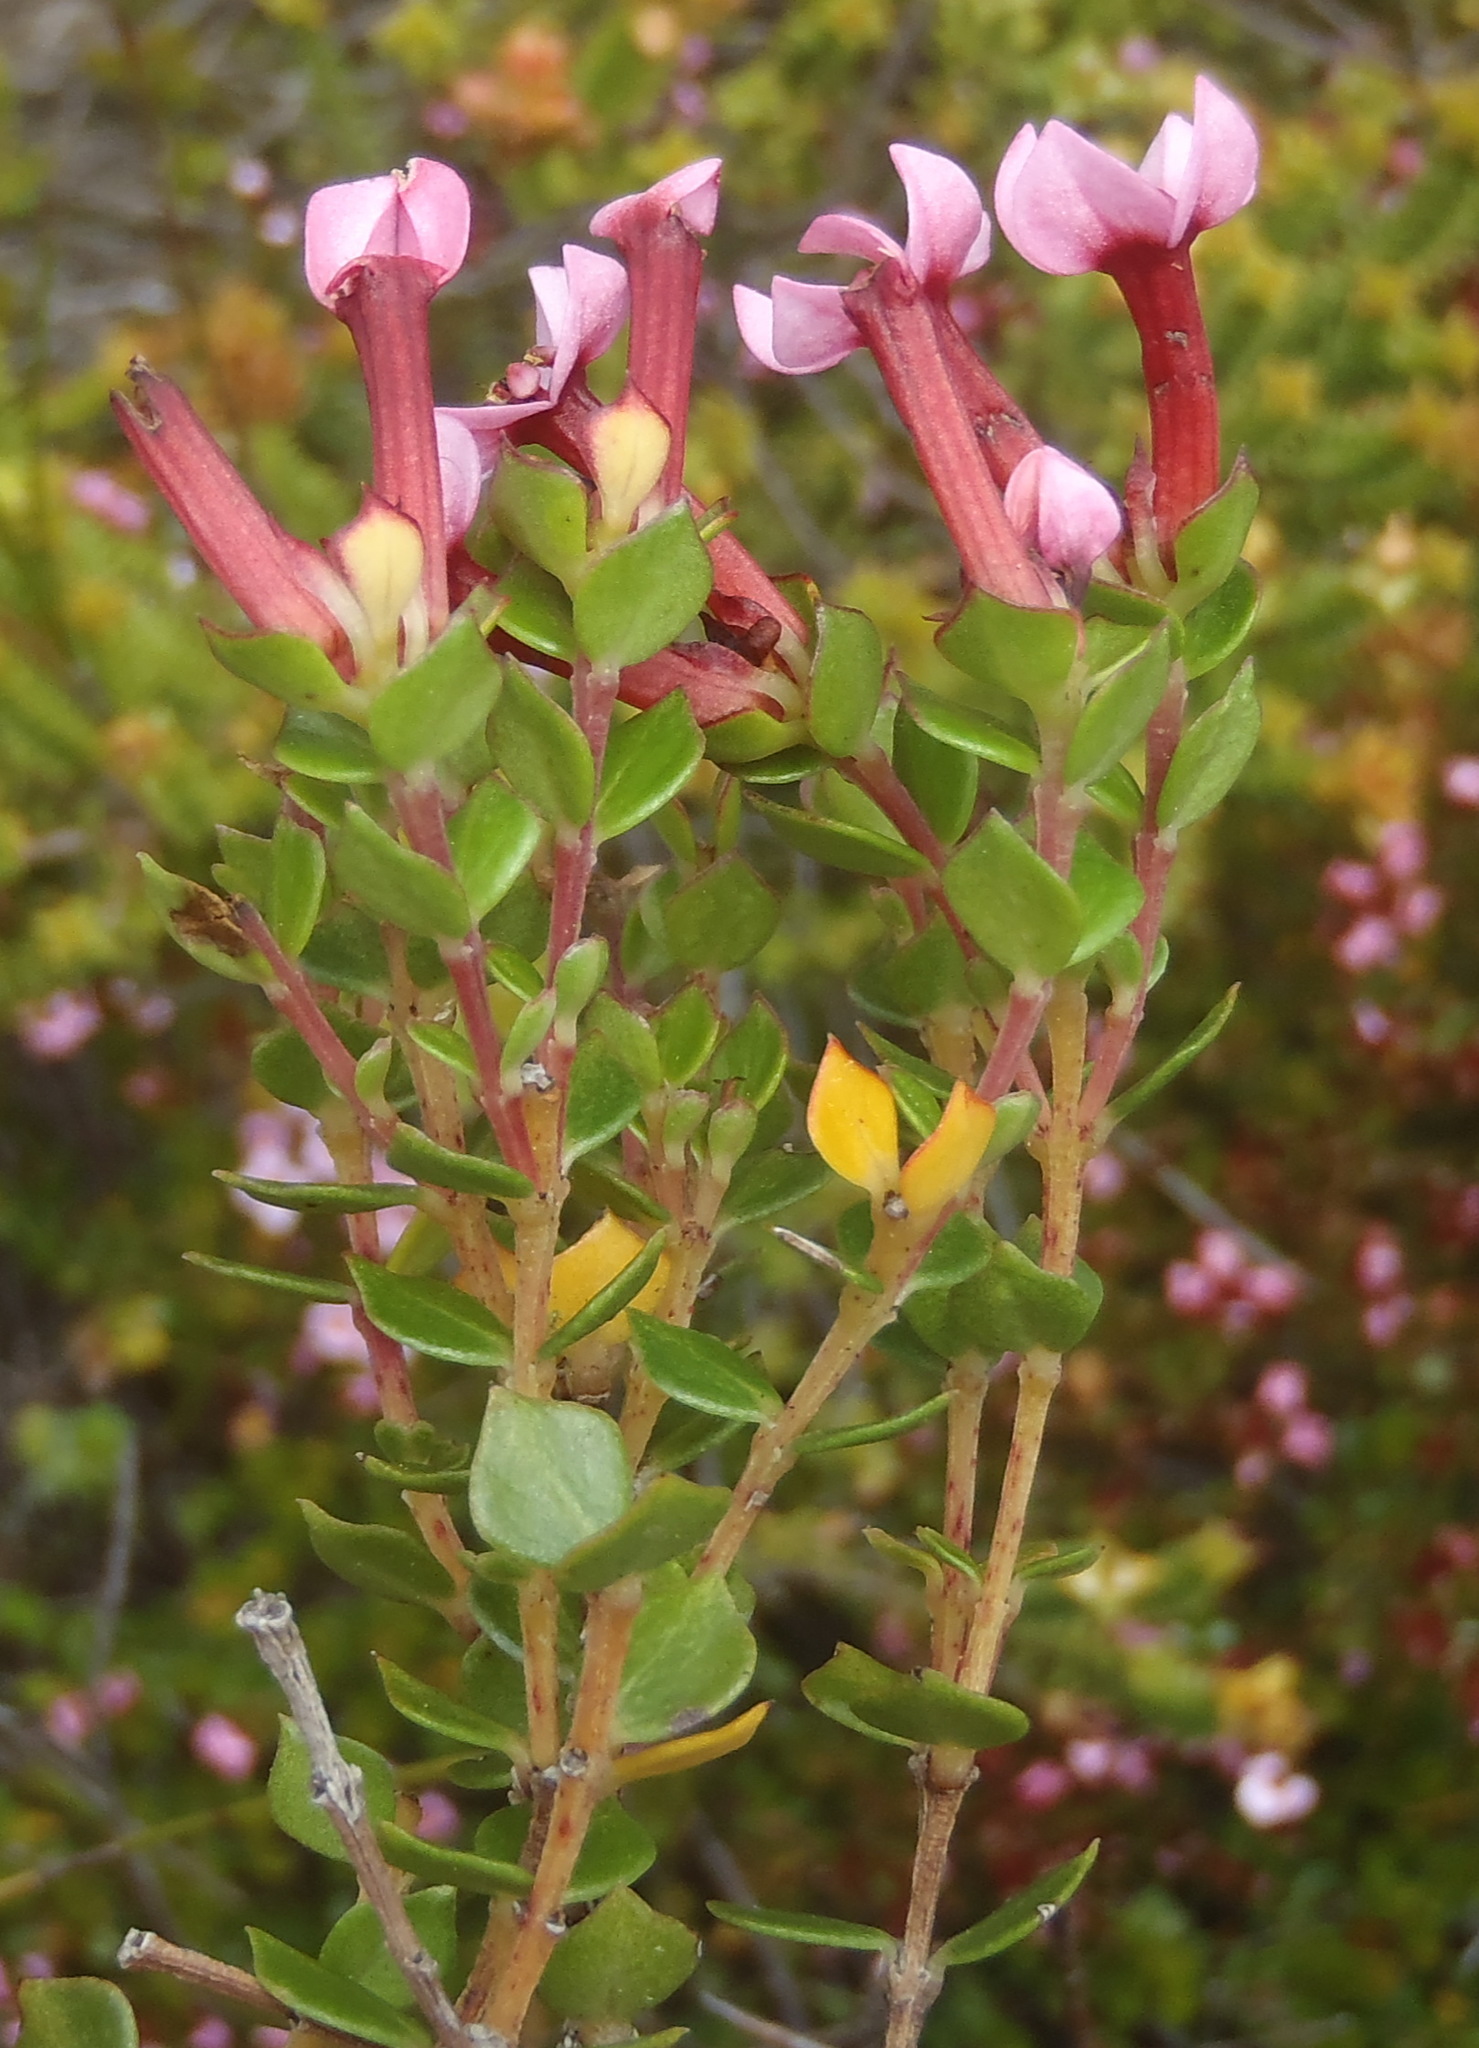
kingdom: Plantae
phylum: Tracheophyta
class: Magnoliopsida
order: Myrtales
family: Penaeaceae
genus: Brachysiphon
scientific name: Brachysiphon acutus
